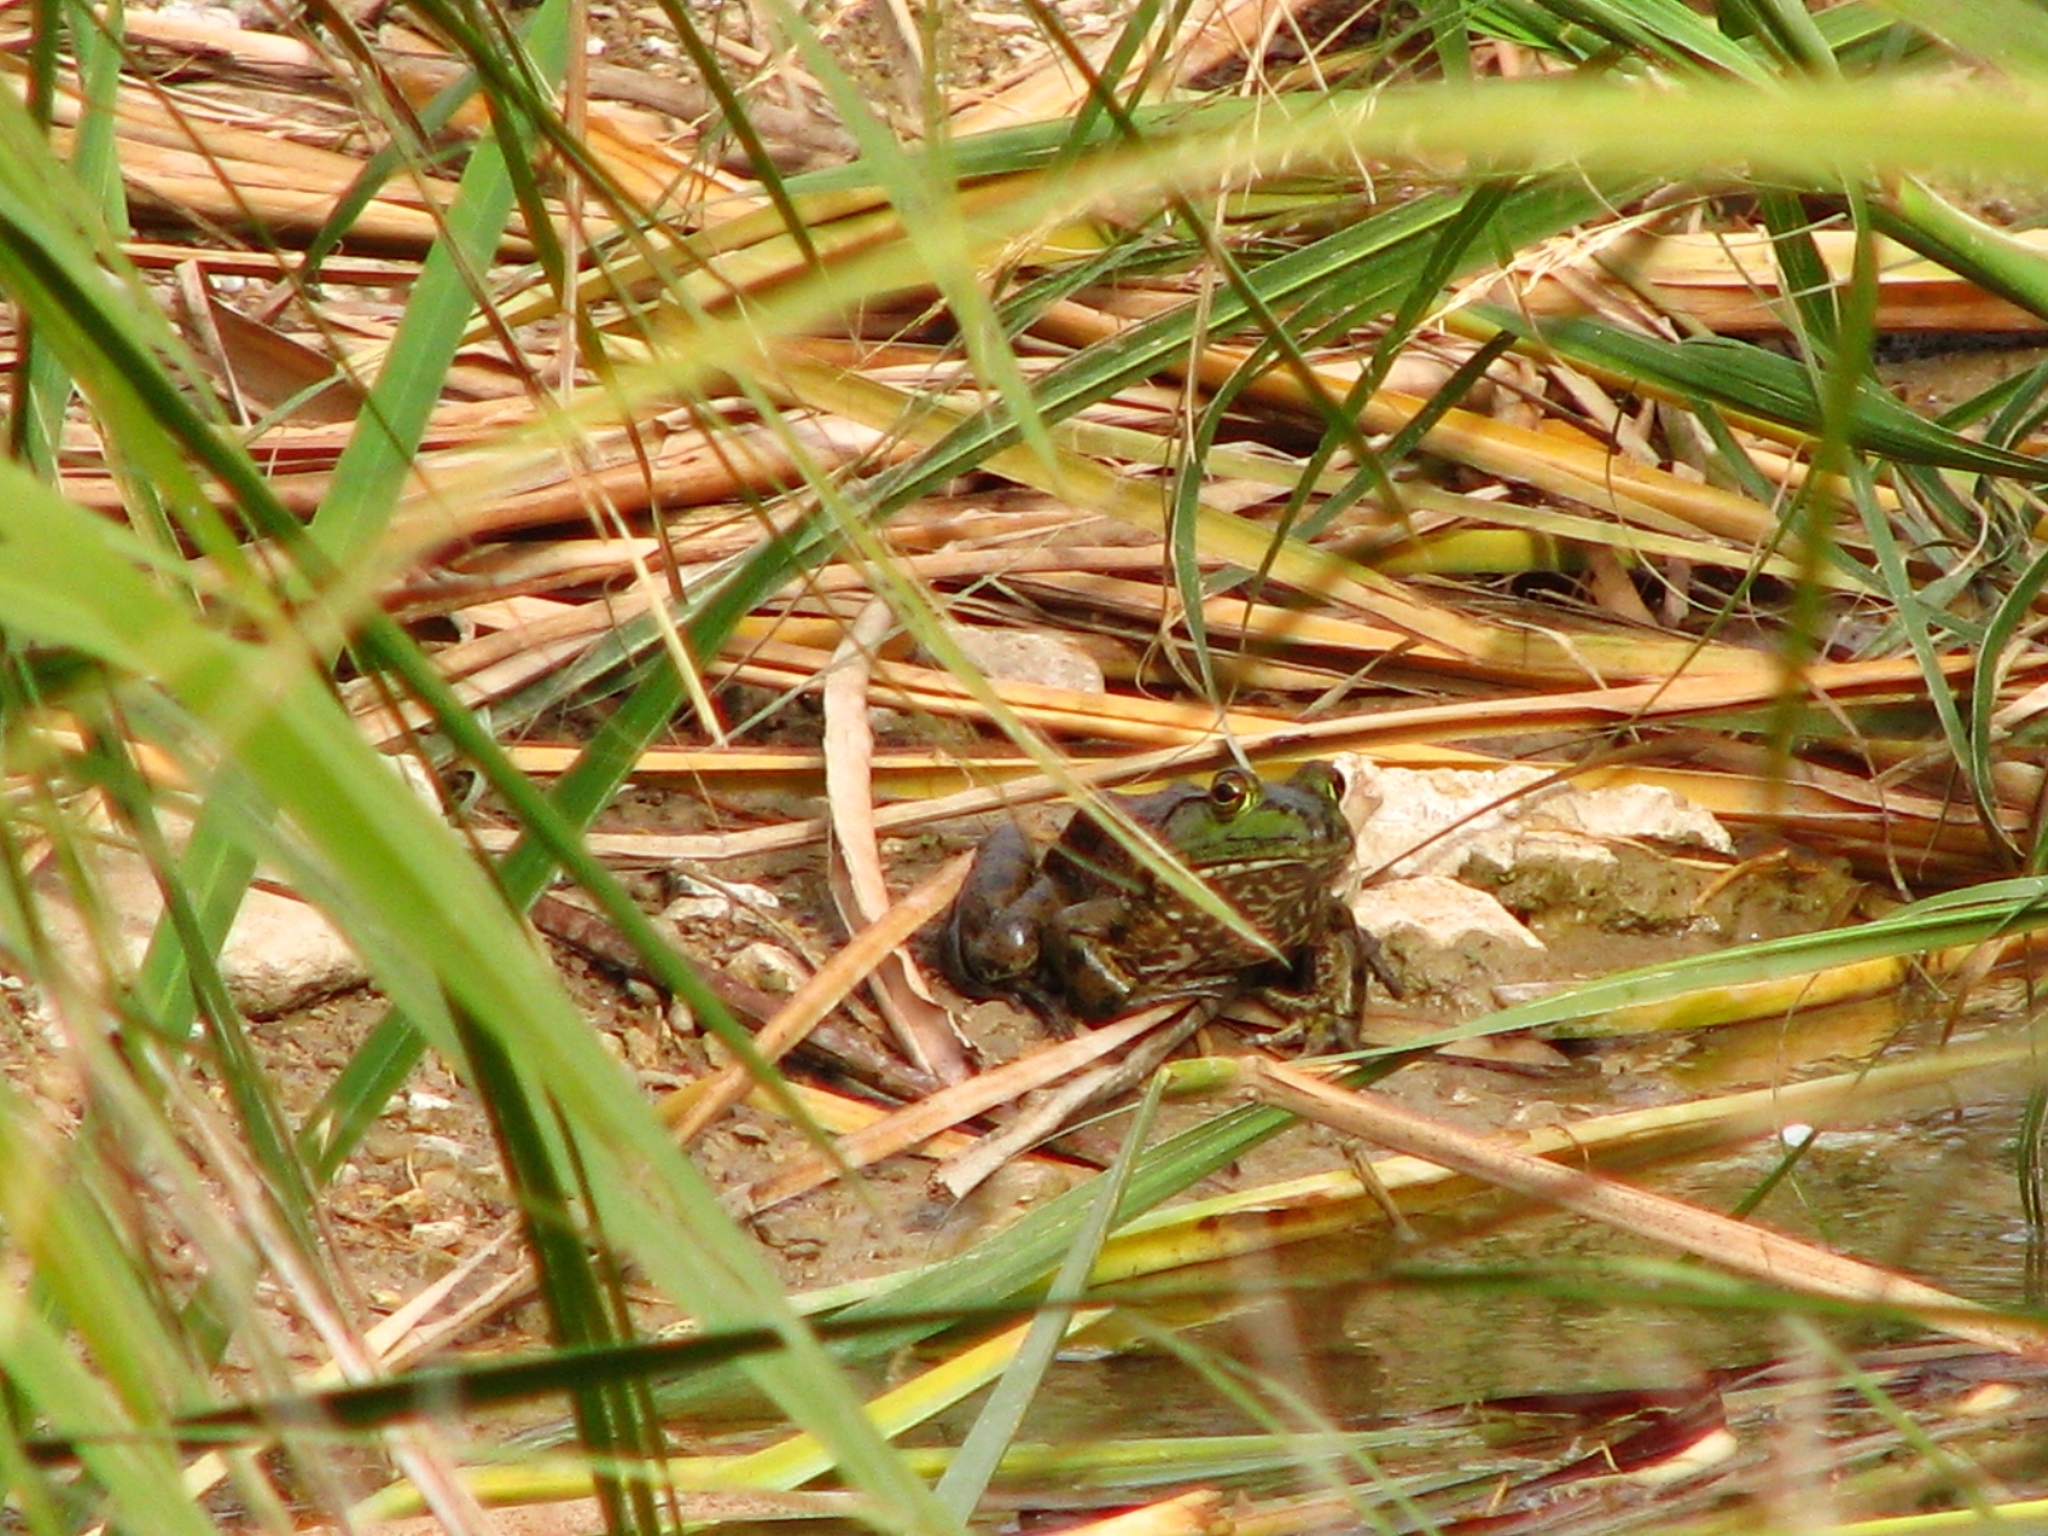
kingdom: Animalia
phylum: Chordata
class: Amphibia
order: Anura
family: Ranidae
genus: Lithobates
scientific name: Lithobates catesbeianus
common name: American bullfrog
